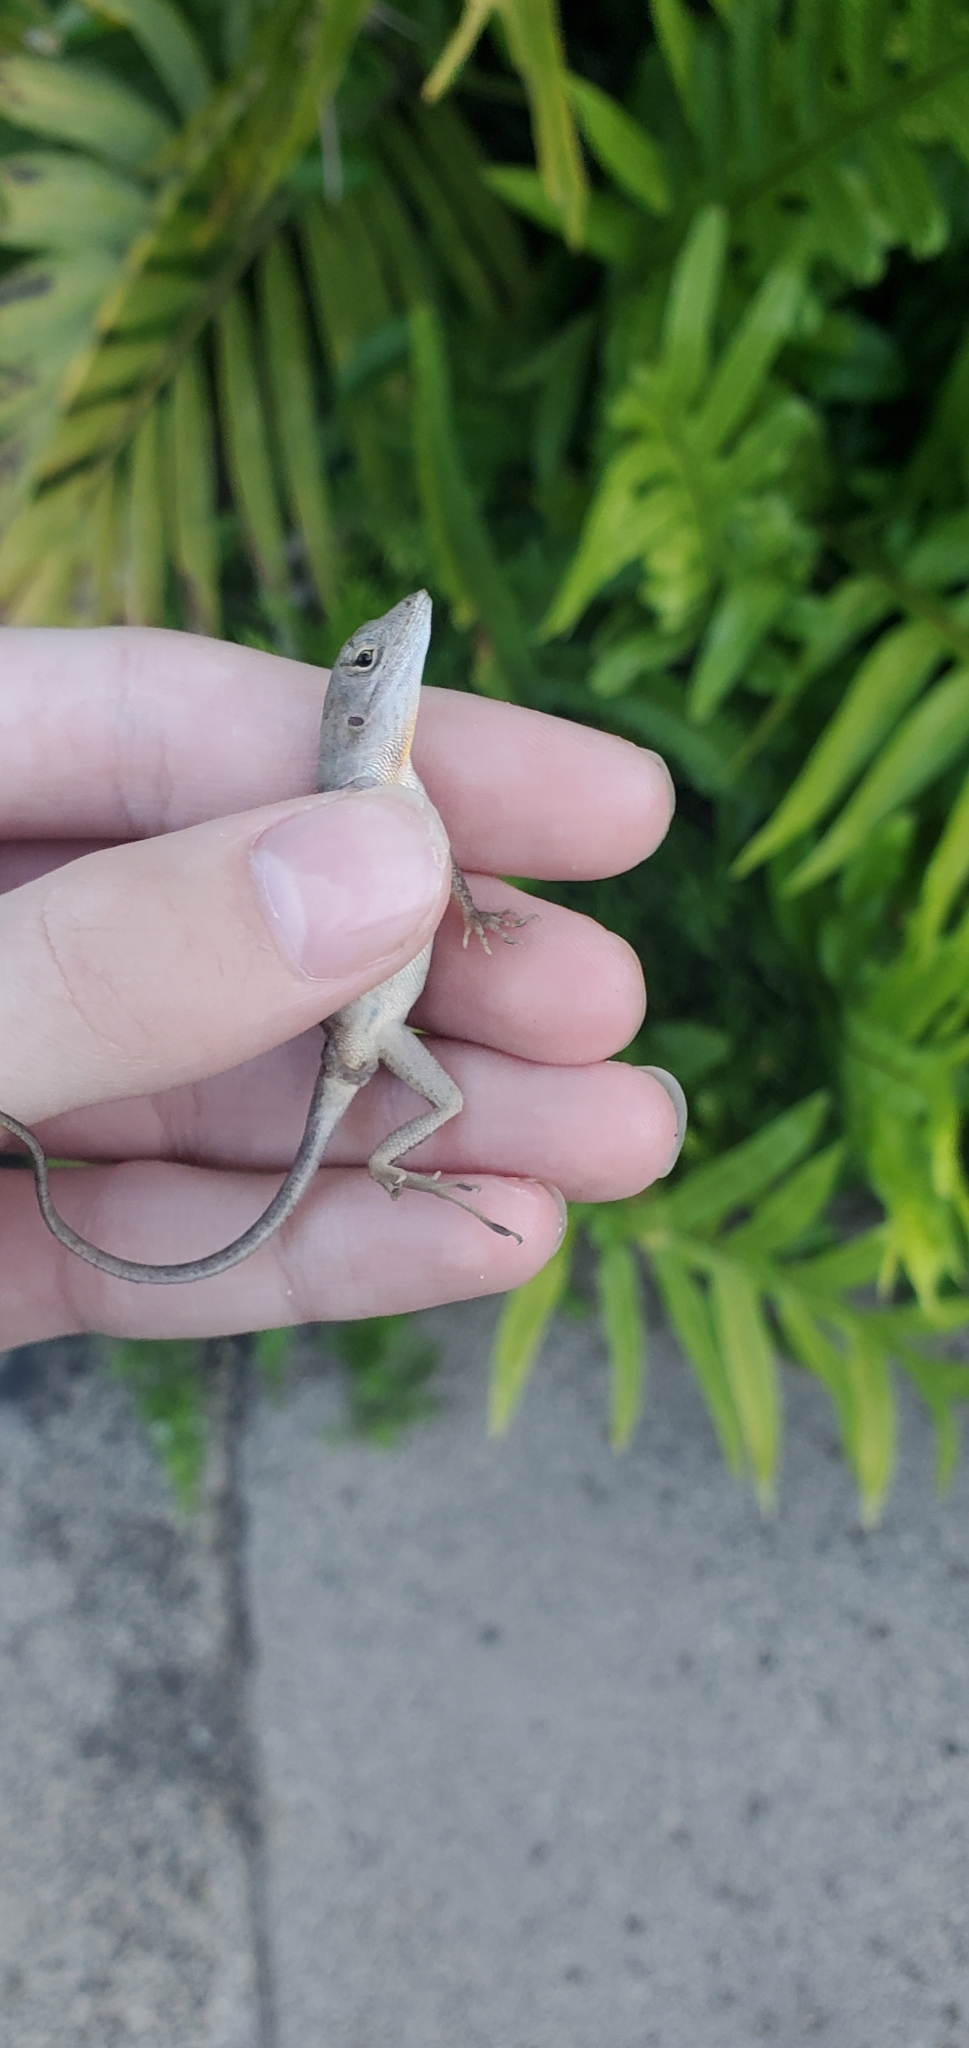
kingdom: Animalia
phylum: Chordata
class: Squamata
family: Dactyloidae
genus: Anolis
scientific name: Anolis sagrei
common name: Brown anole
